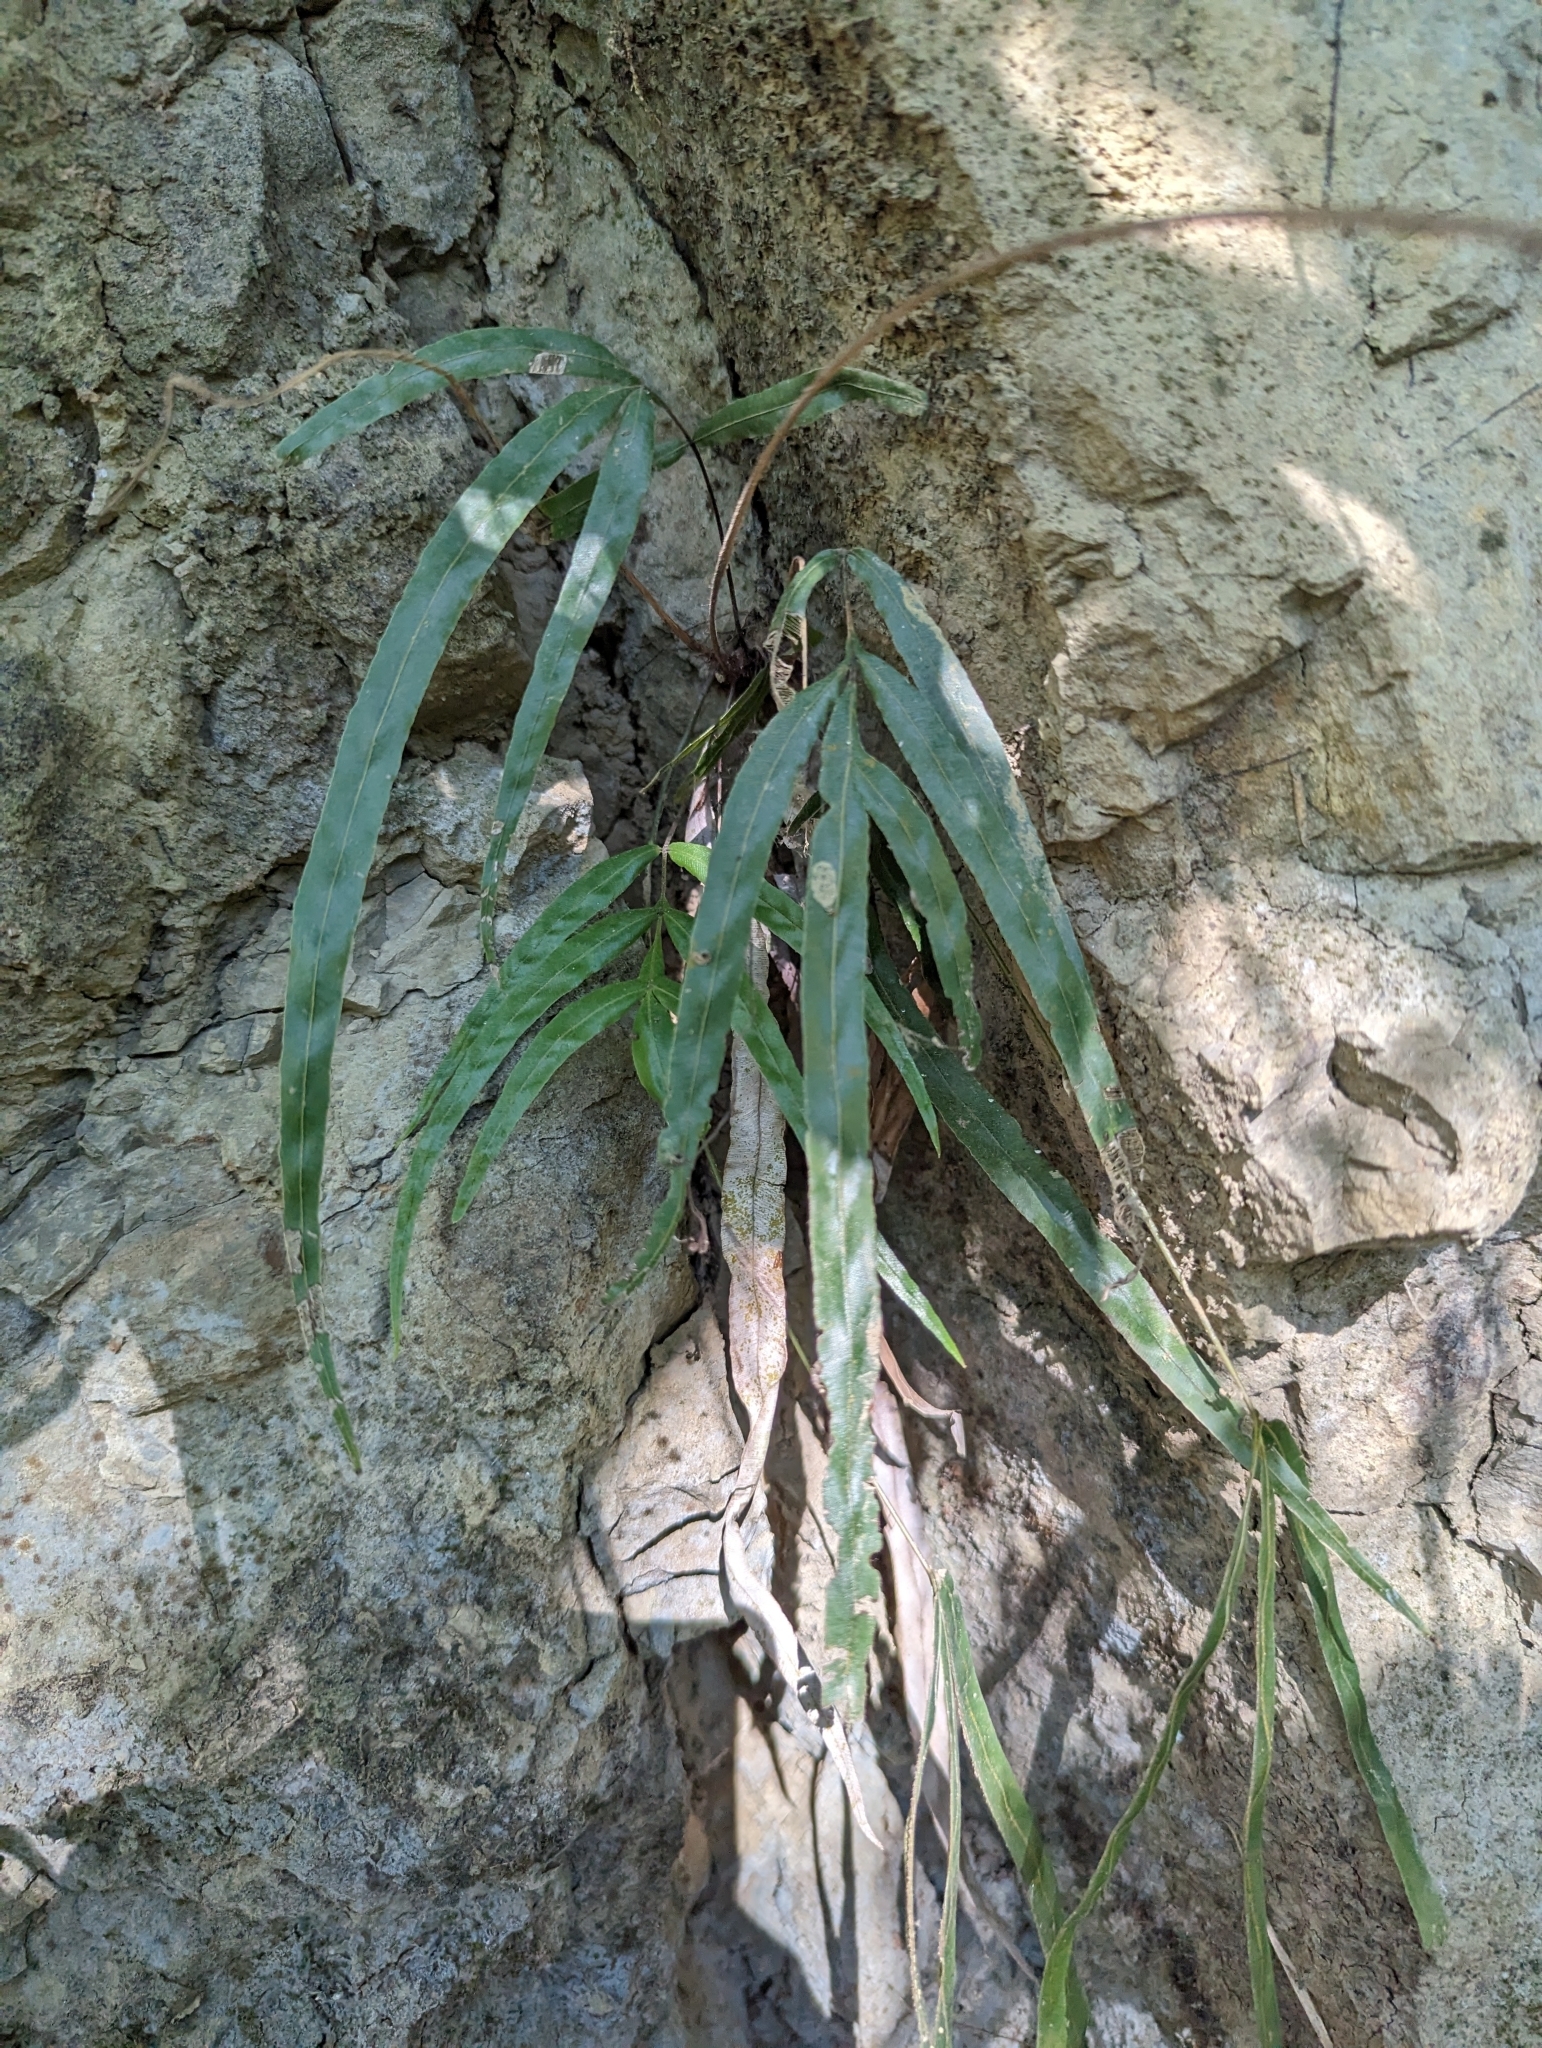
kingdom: Plantae
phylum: Tracheophyta
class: Polypodiopsida
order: Polypodiales
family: Pteridaceae
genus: Pteris
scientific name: Pteris longipinna
